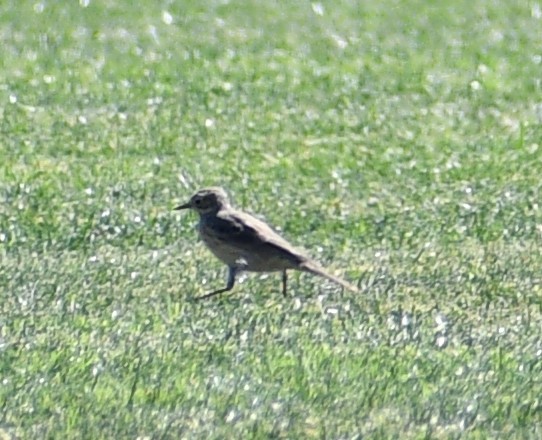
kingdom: Animalia
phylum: Chordata
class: Aves
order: Passeriformes
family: Motacillidae
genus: Anthus
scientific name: Anthus rubescens
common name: Buff-bellied pipit
